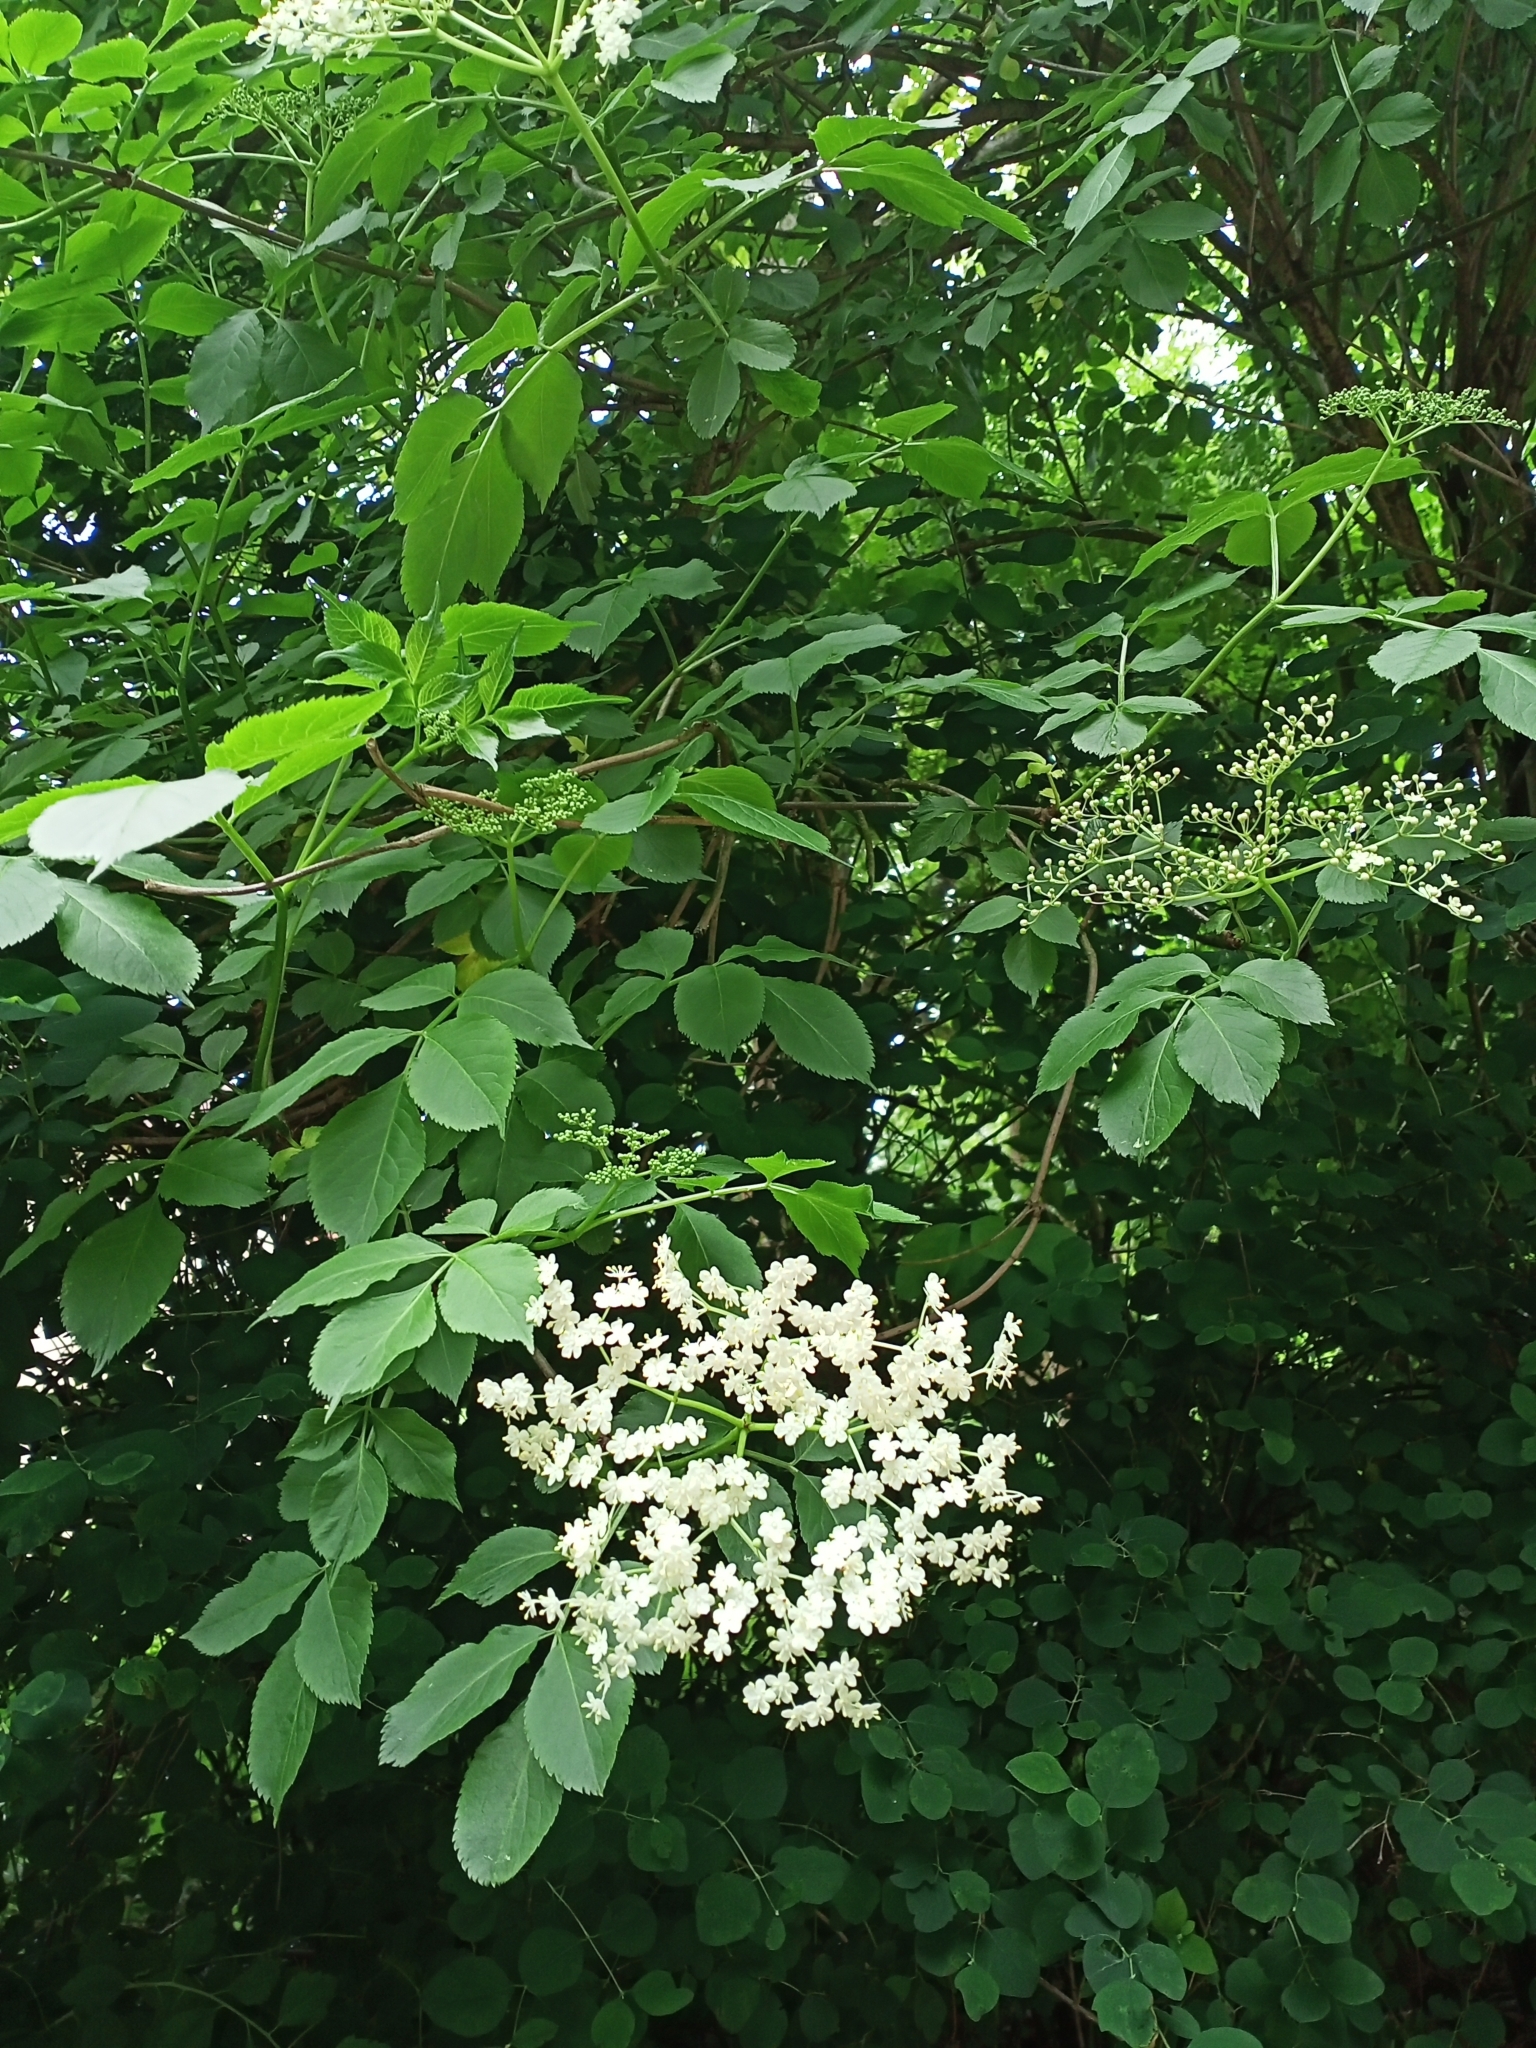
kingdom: Plantae
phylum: Tracheophyta
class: Magnoliopsida
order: Dipsacales
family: Viburnaceae
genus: Sambucus
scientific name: Sambucus nigra
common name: Elder
